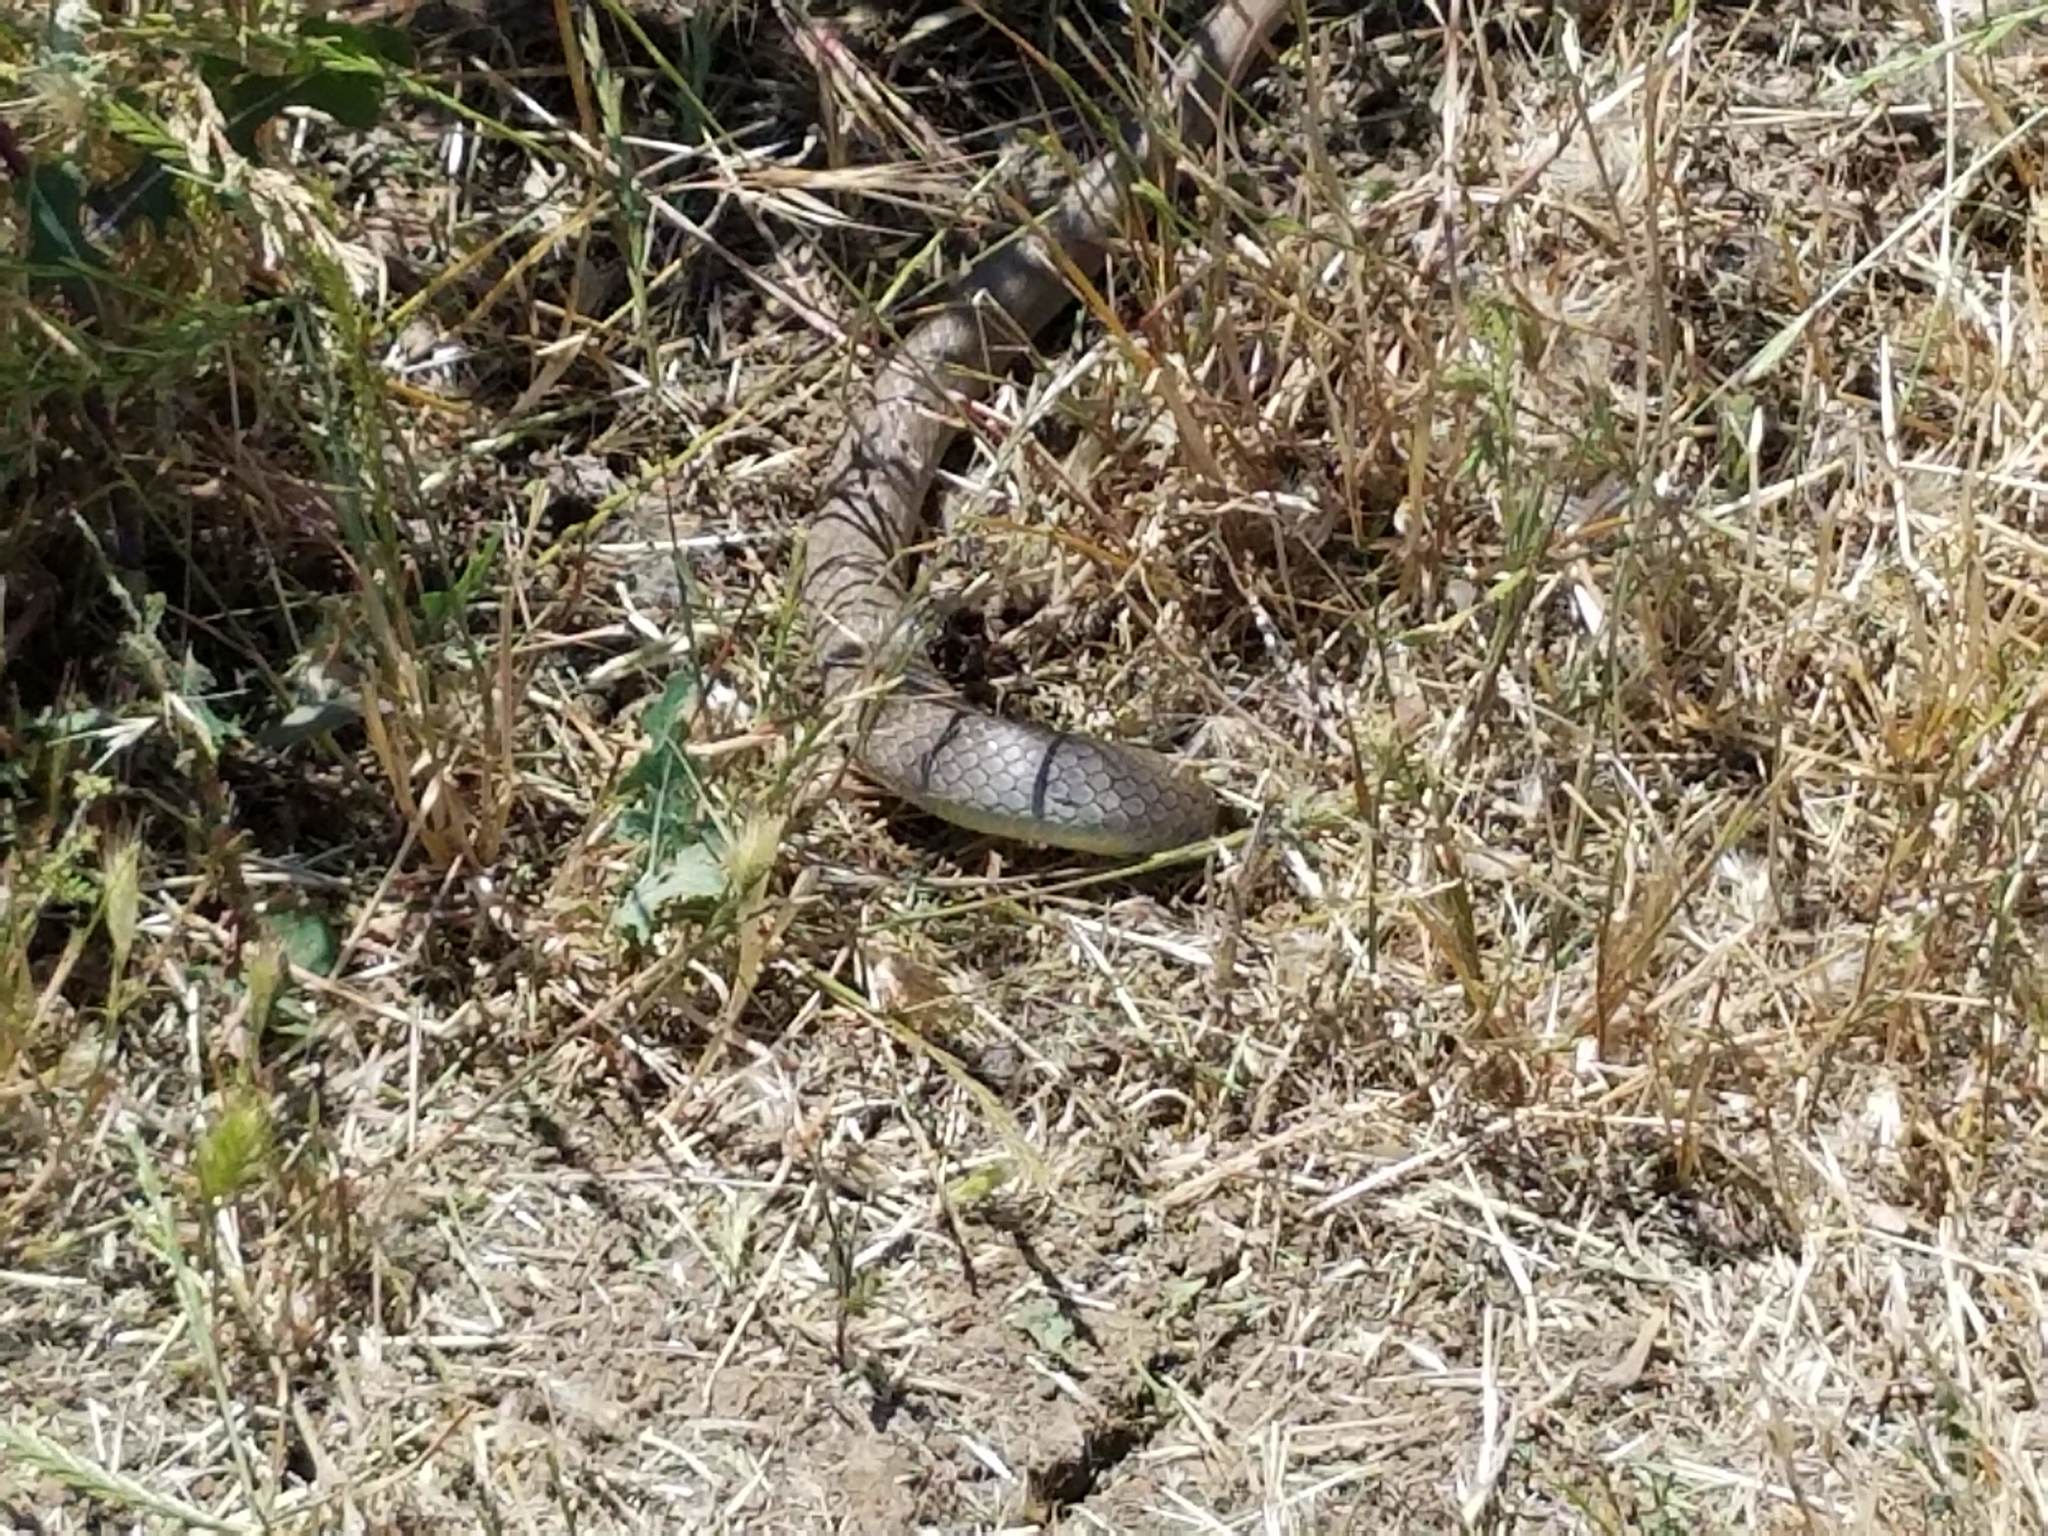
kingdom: Animalia
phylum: Chordata
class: Squamata
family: Colubridae
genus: Coluber
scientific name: Coluber constrictor
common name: Eastern racer
